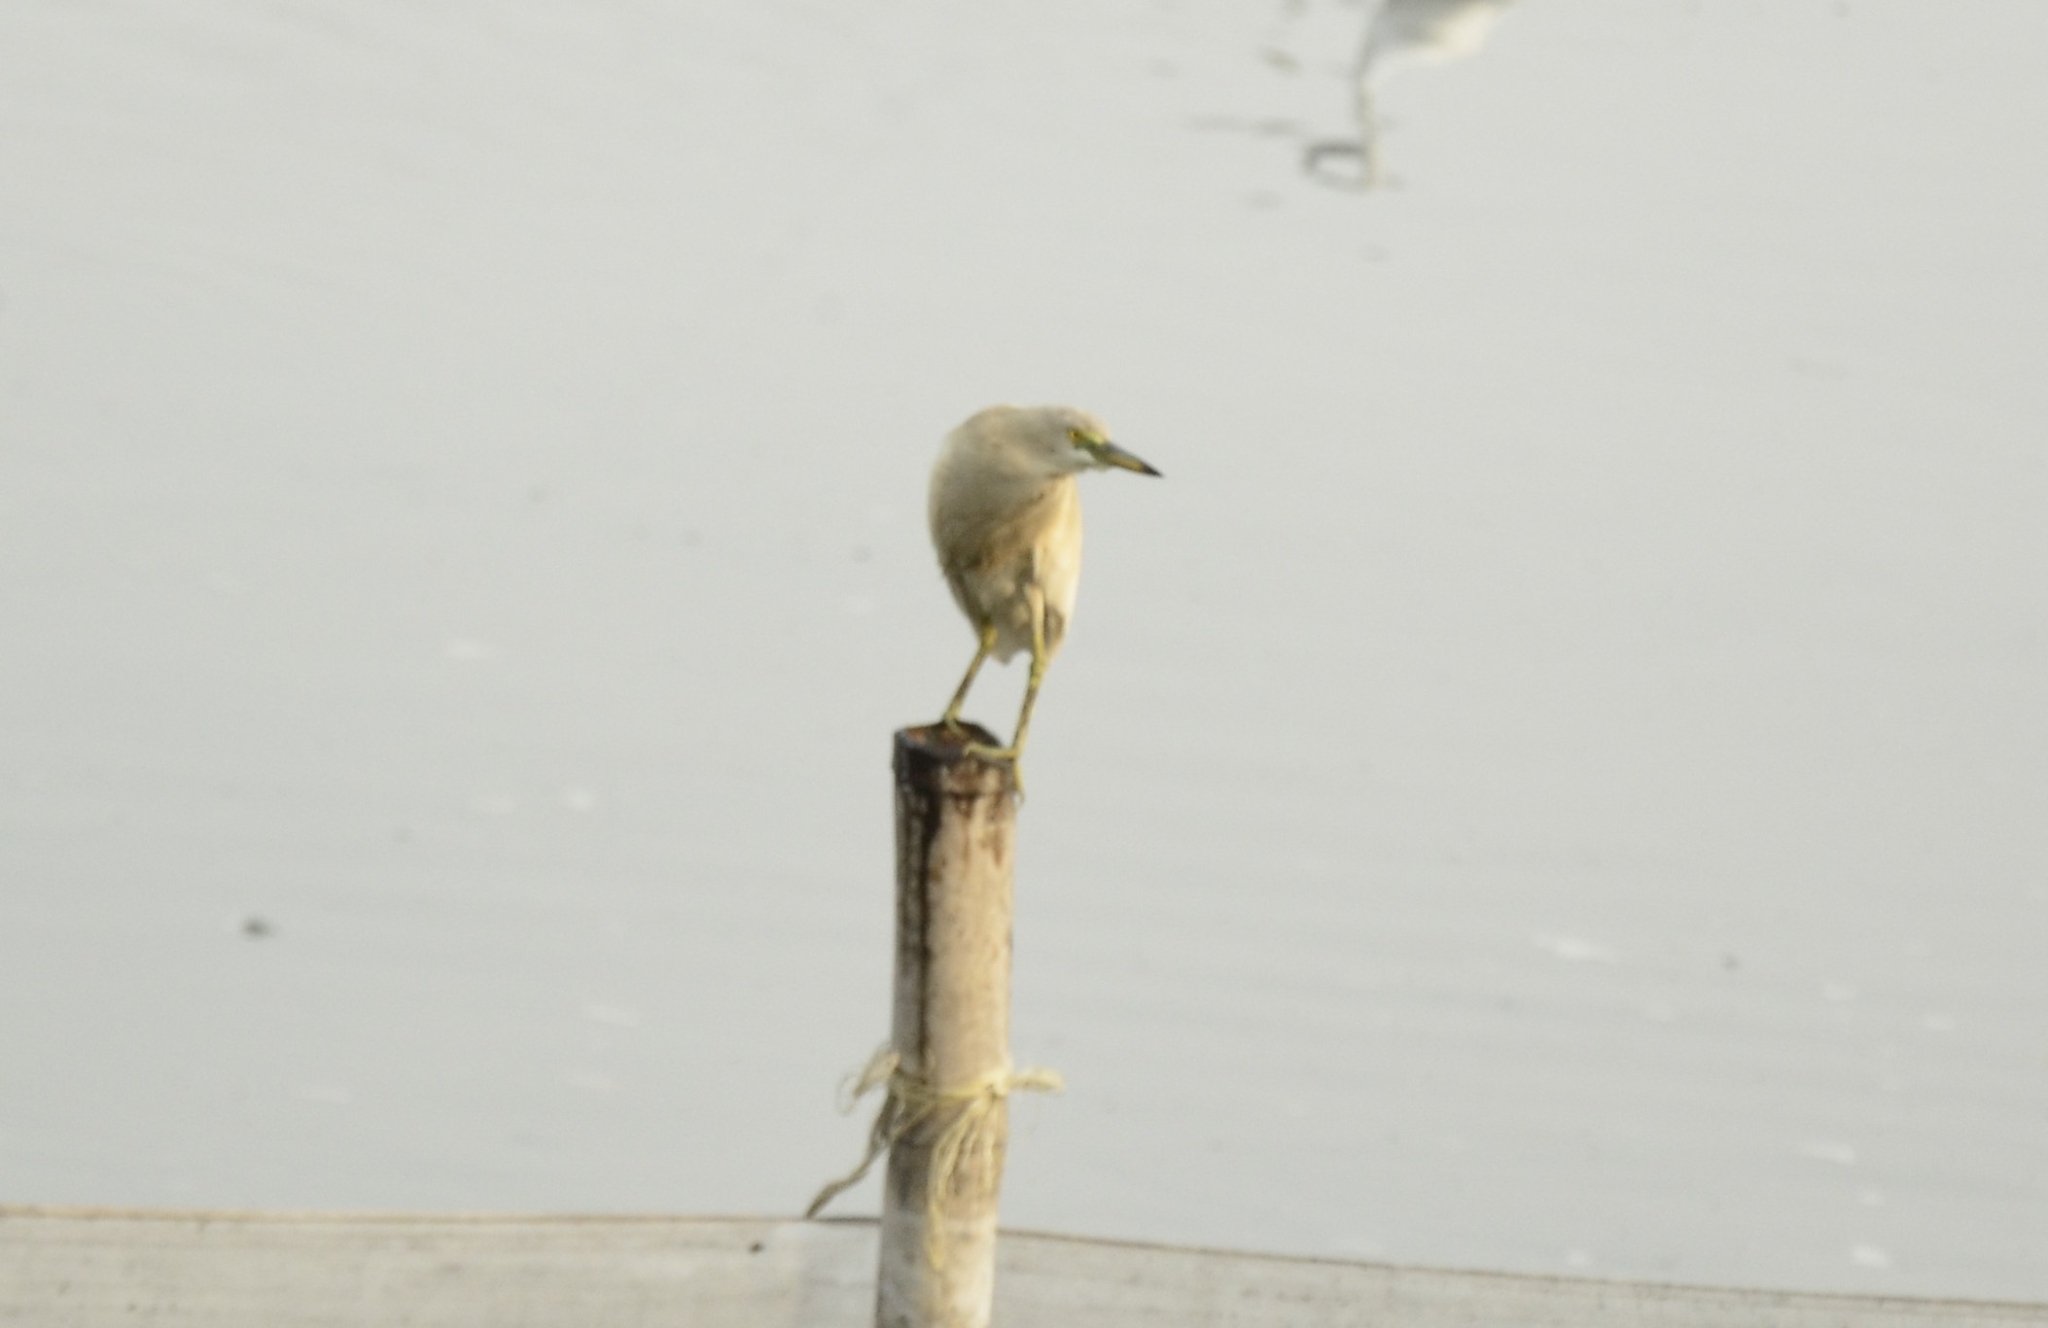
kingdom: Animalia
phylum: Chordata
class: Aves
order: Pelecaniformes
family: Ardeidae
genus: Ardeola
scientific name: Ardeola grayii
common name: Indian pond heron
